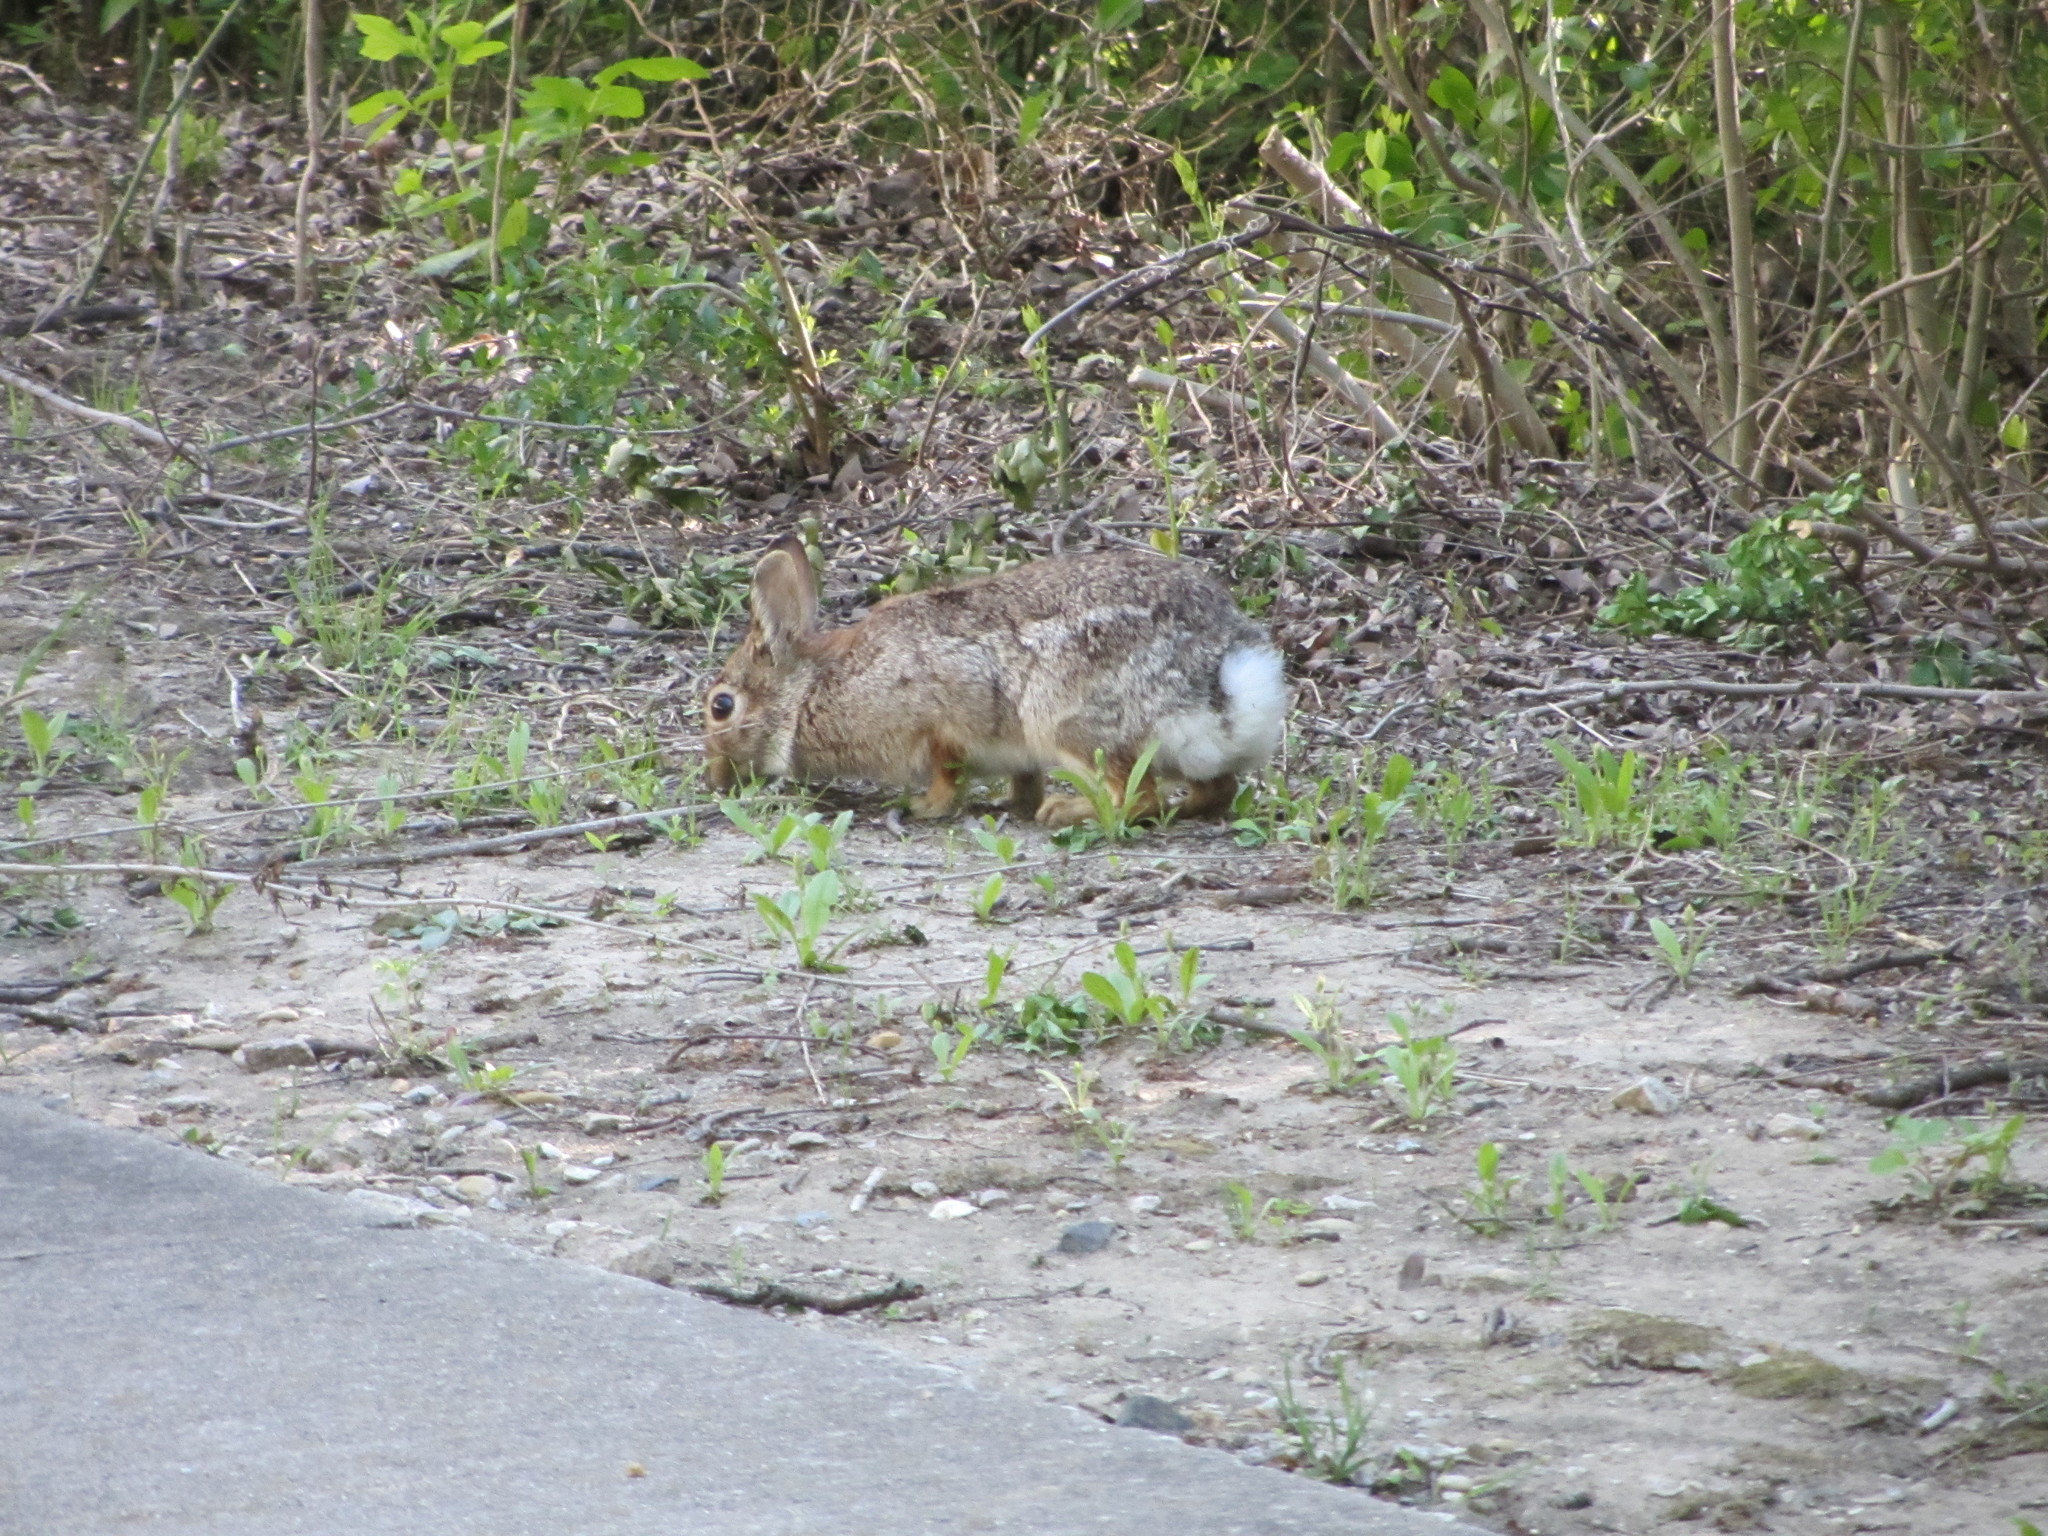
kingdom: Animalia
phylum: Chordata
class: Mammalia
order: Lagomorpha
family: Leporidae
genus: Sylvilagus
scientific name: Sylvilagus floridanus
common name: Eastern cottontail
